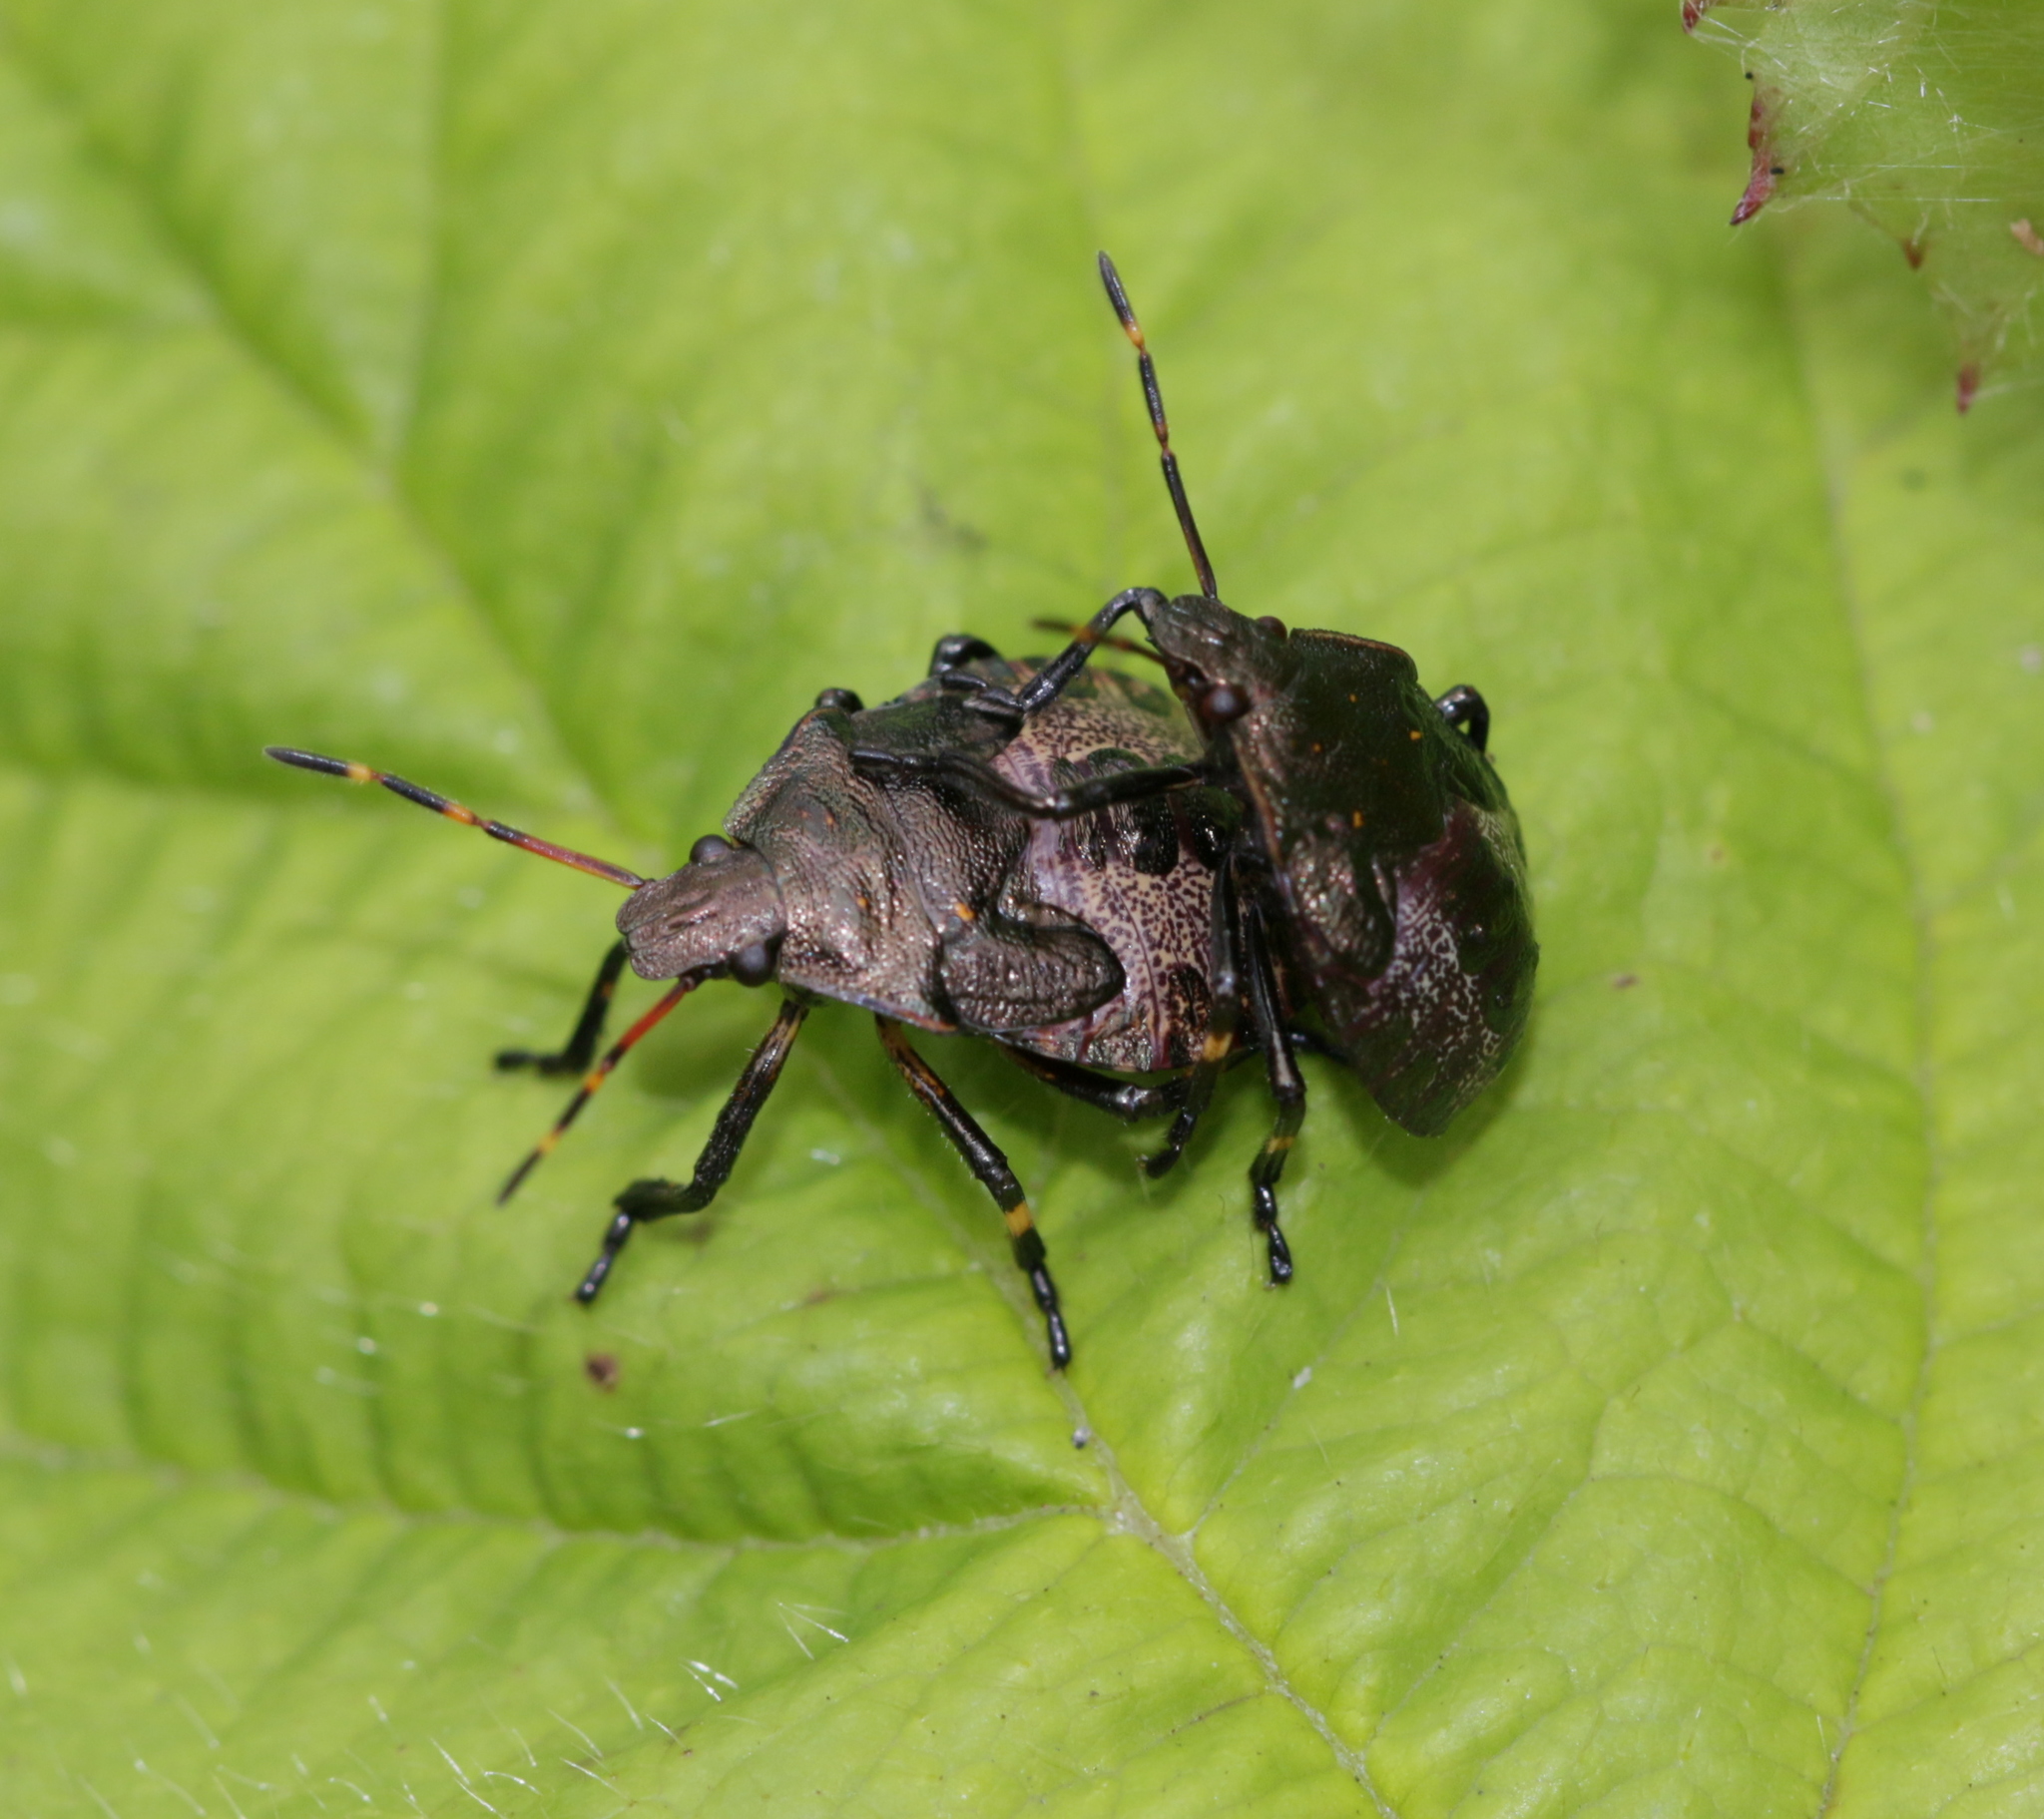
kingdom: Animalia
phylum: Arthropoda
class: Insecta
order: Hemiptera
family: Pentatomidae
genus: Picromerus
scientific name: Picromerus bidens
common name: Spiked shieldbug
